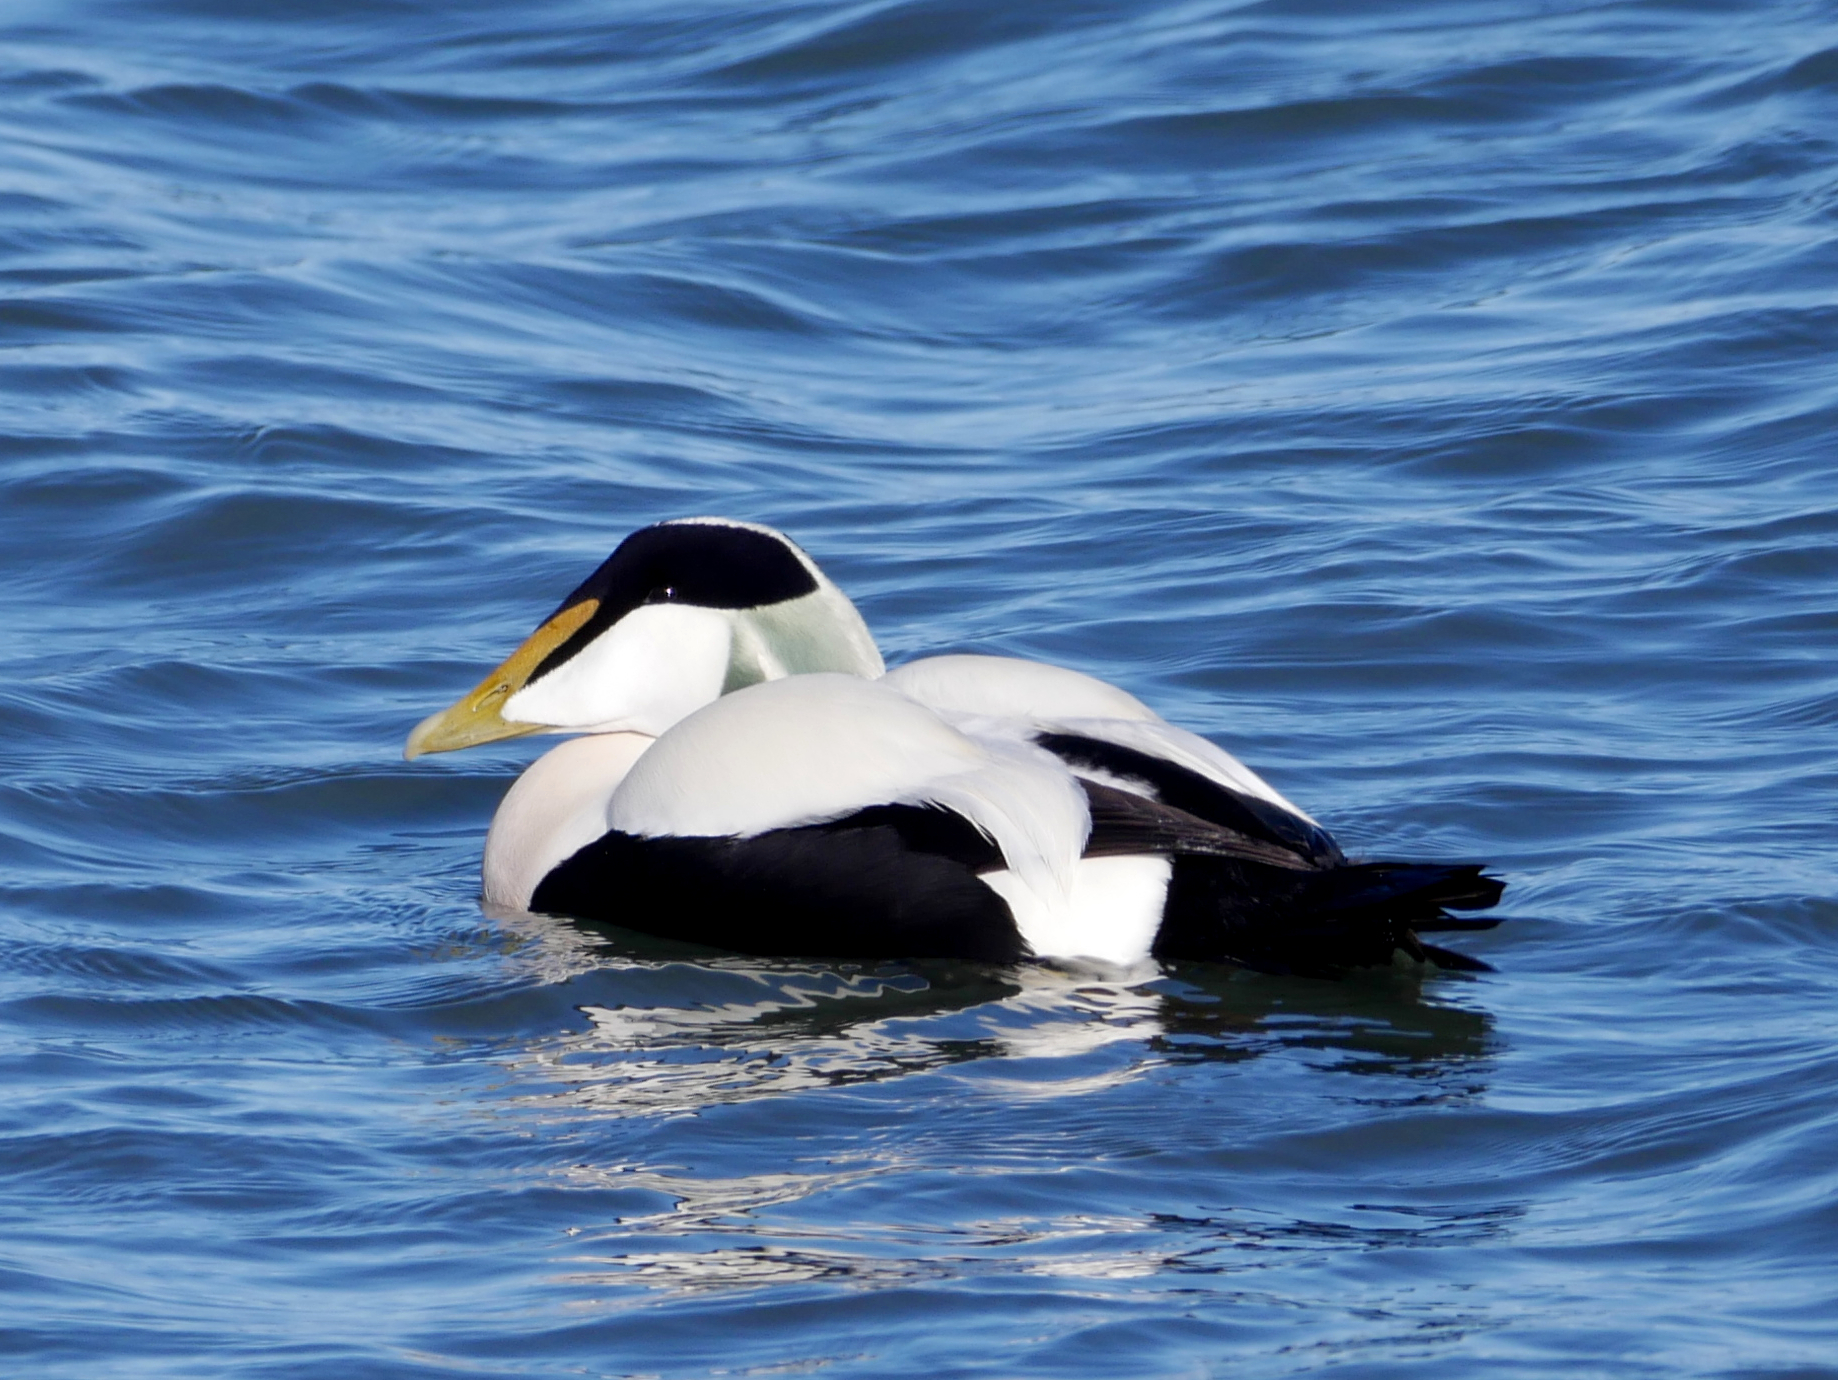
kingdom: Animalia
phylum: Chordata
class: Aves
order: Anseriformes
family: Anatidae
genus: Somateria
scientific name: Somateria mollissima
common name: Common eider
